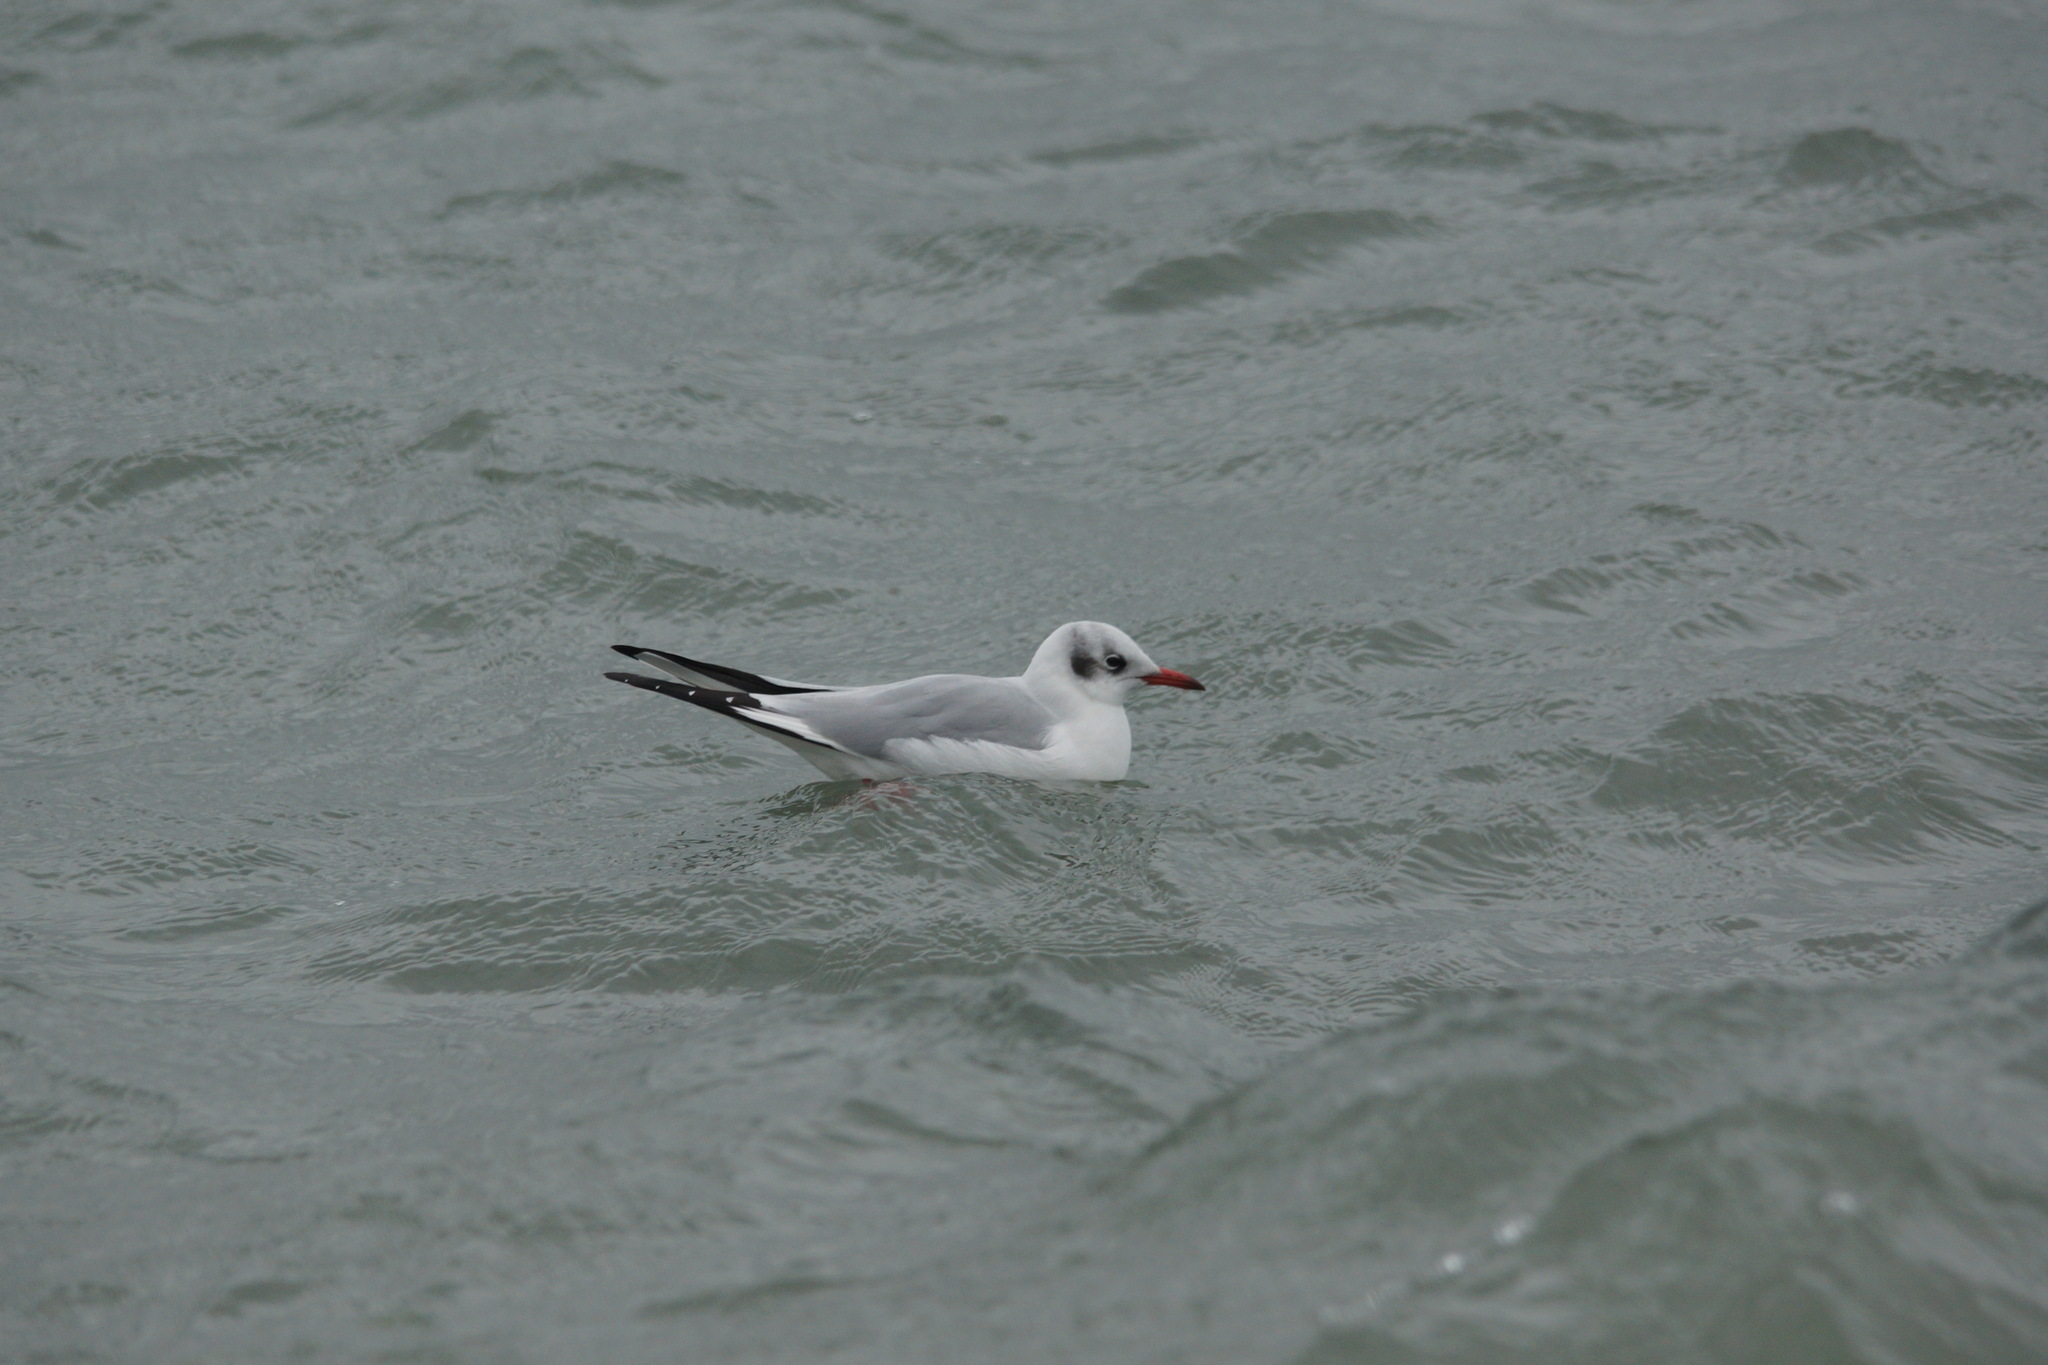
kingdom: Animalia
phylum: Chordata
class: Aves
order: Charadriiformes
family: Laridae
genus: Chroicocephalus
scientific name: Chroicocephalus ridibundus
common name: Black-headed gull
